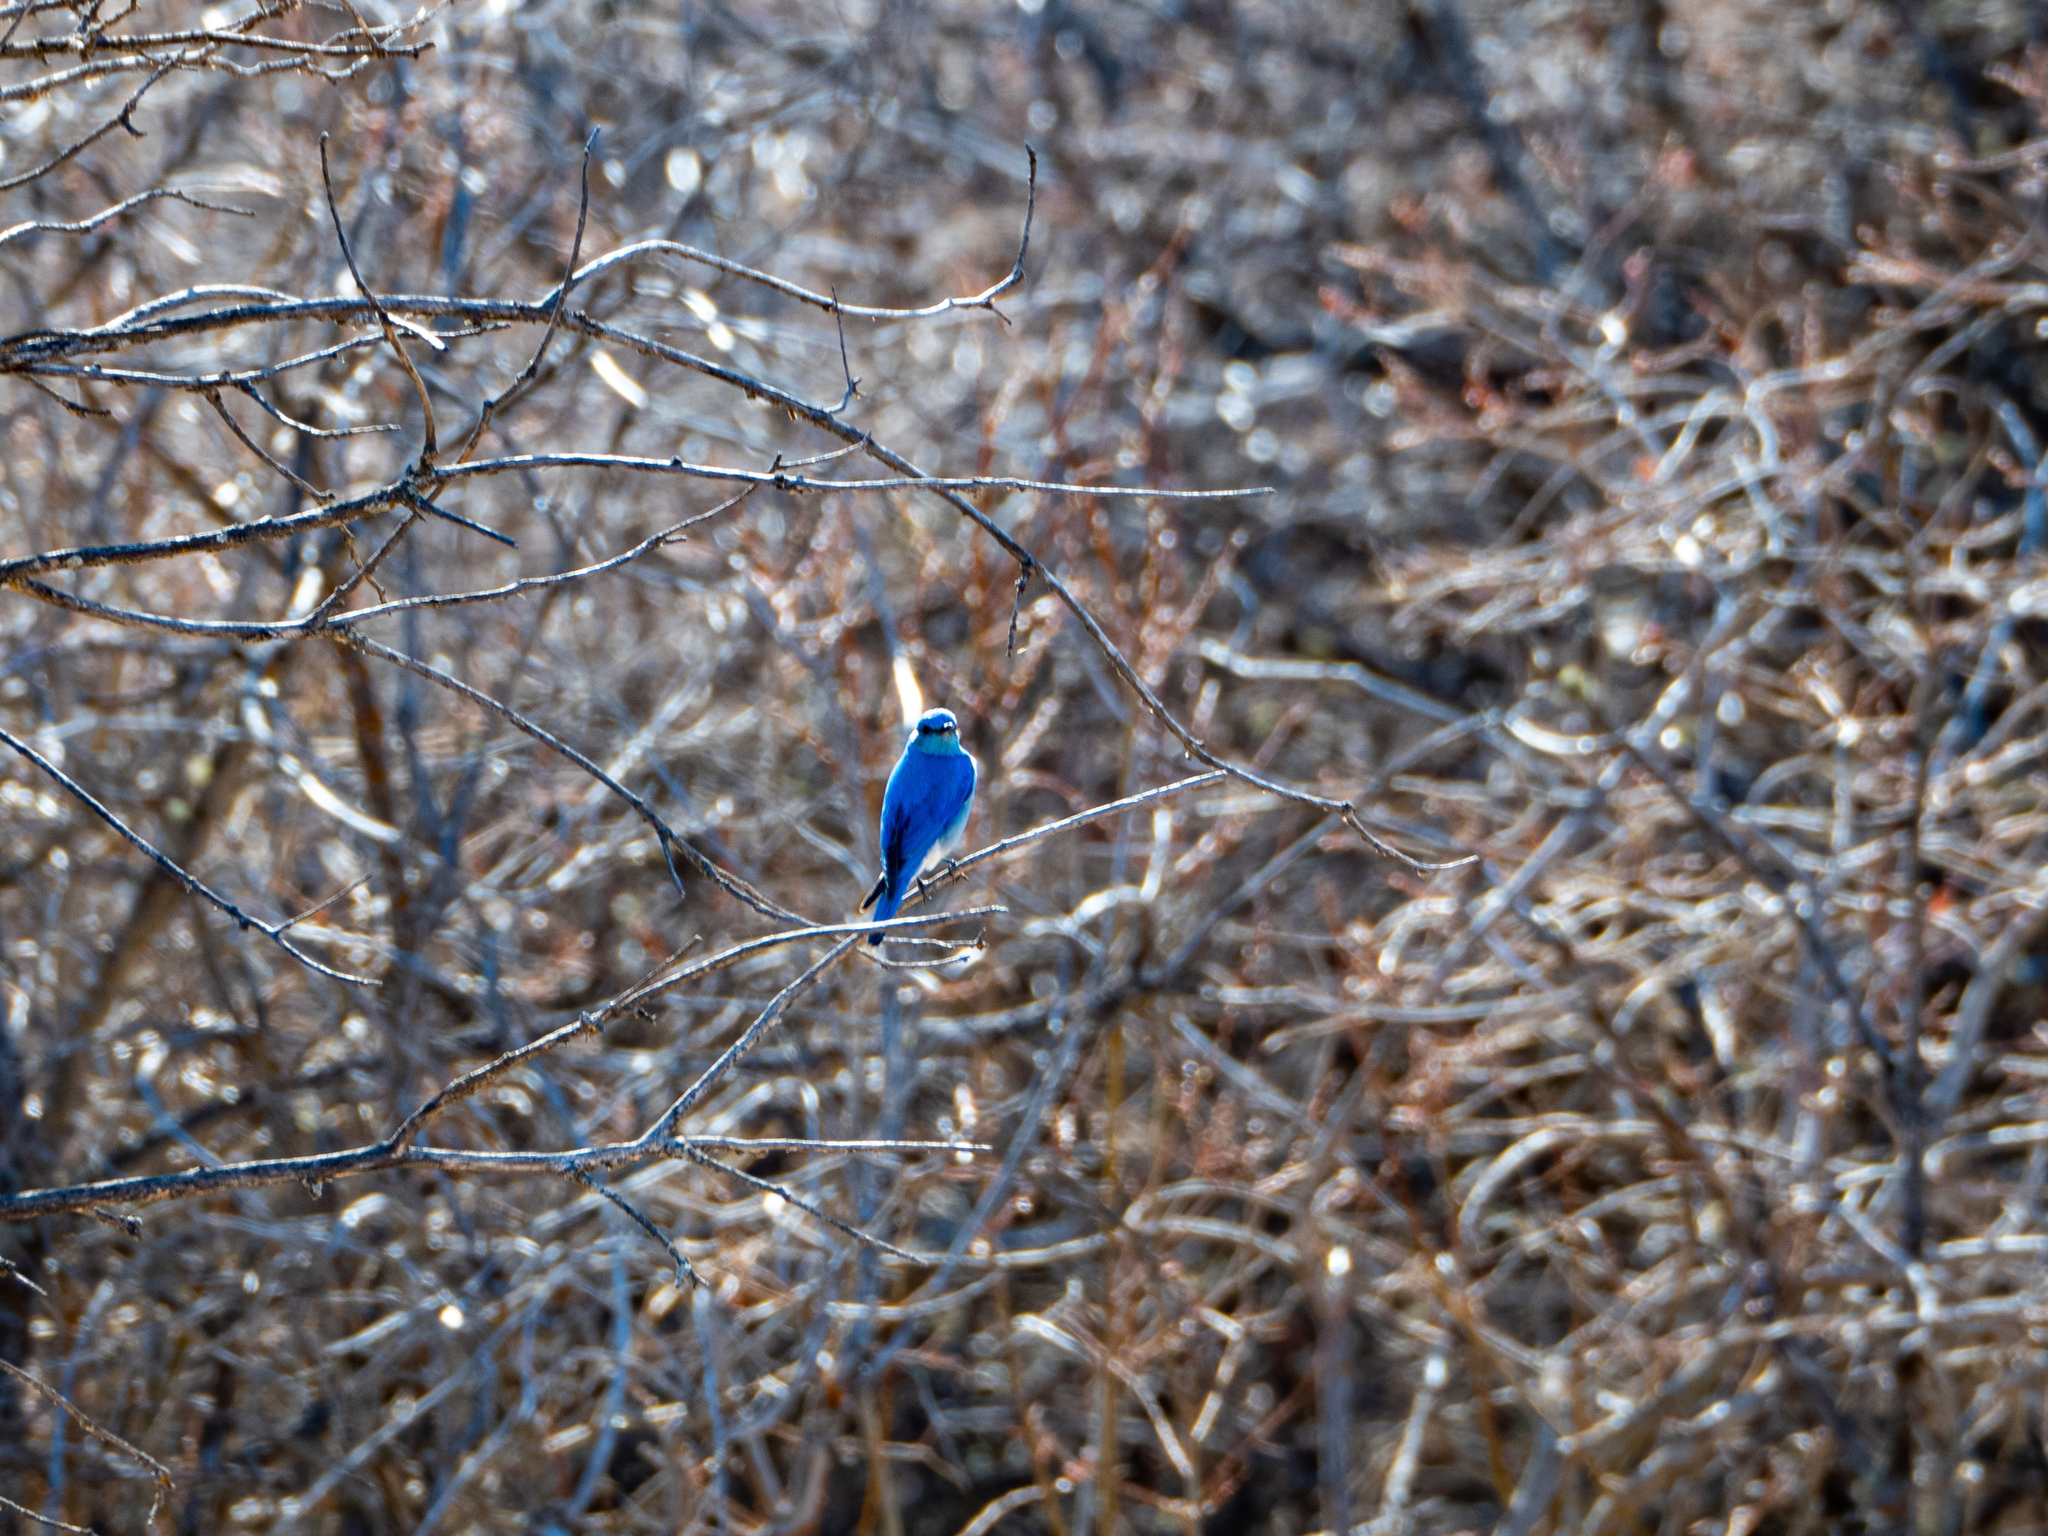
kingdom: Animalia
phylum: Chordata
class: Aves
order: Passeriformes
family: Turdidae
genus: Sialia
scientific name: Sialia currucoides
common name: Mountain bluebird
